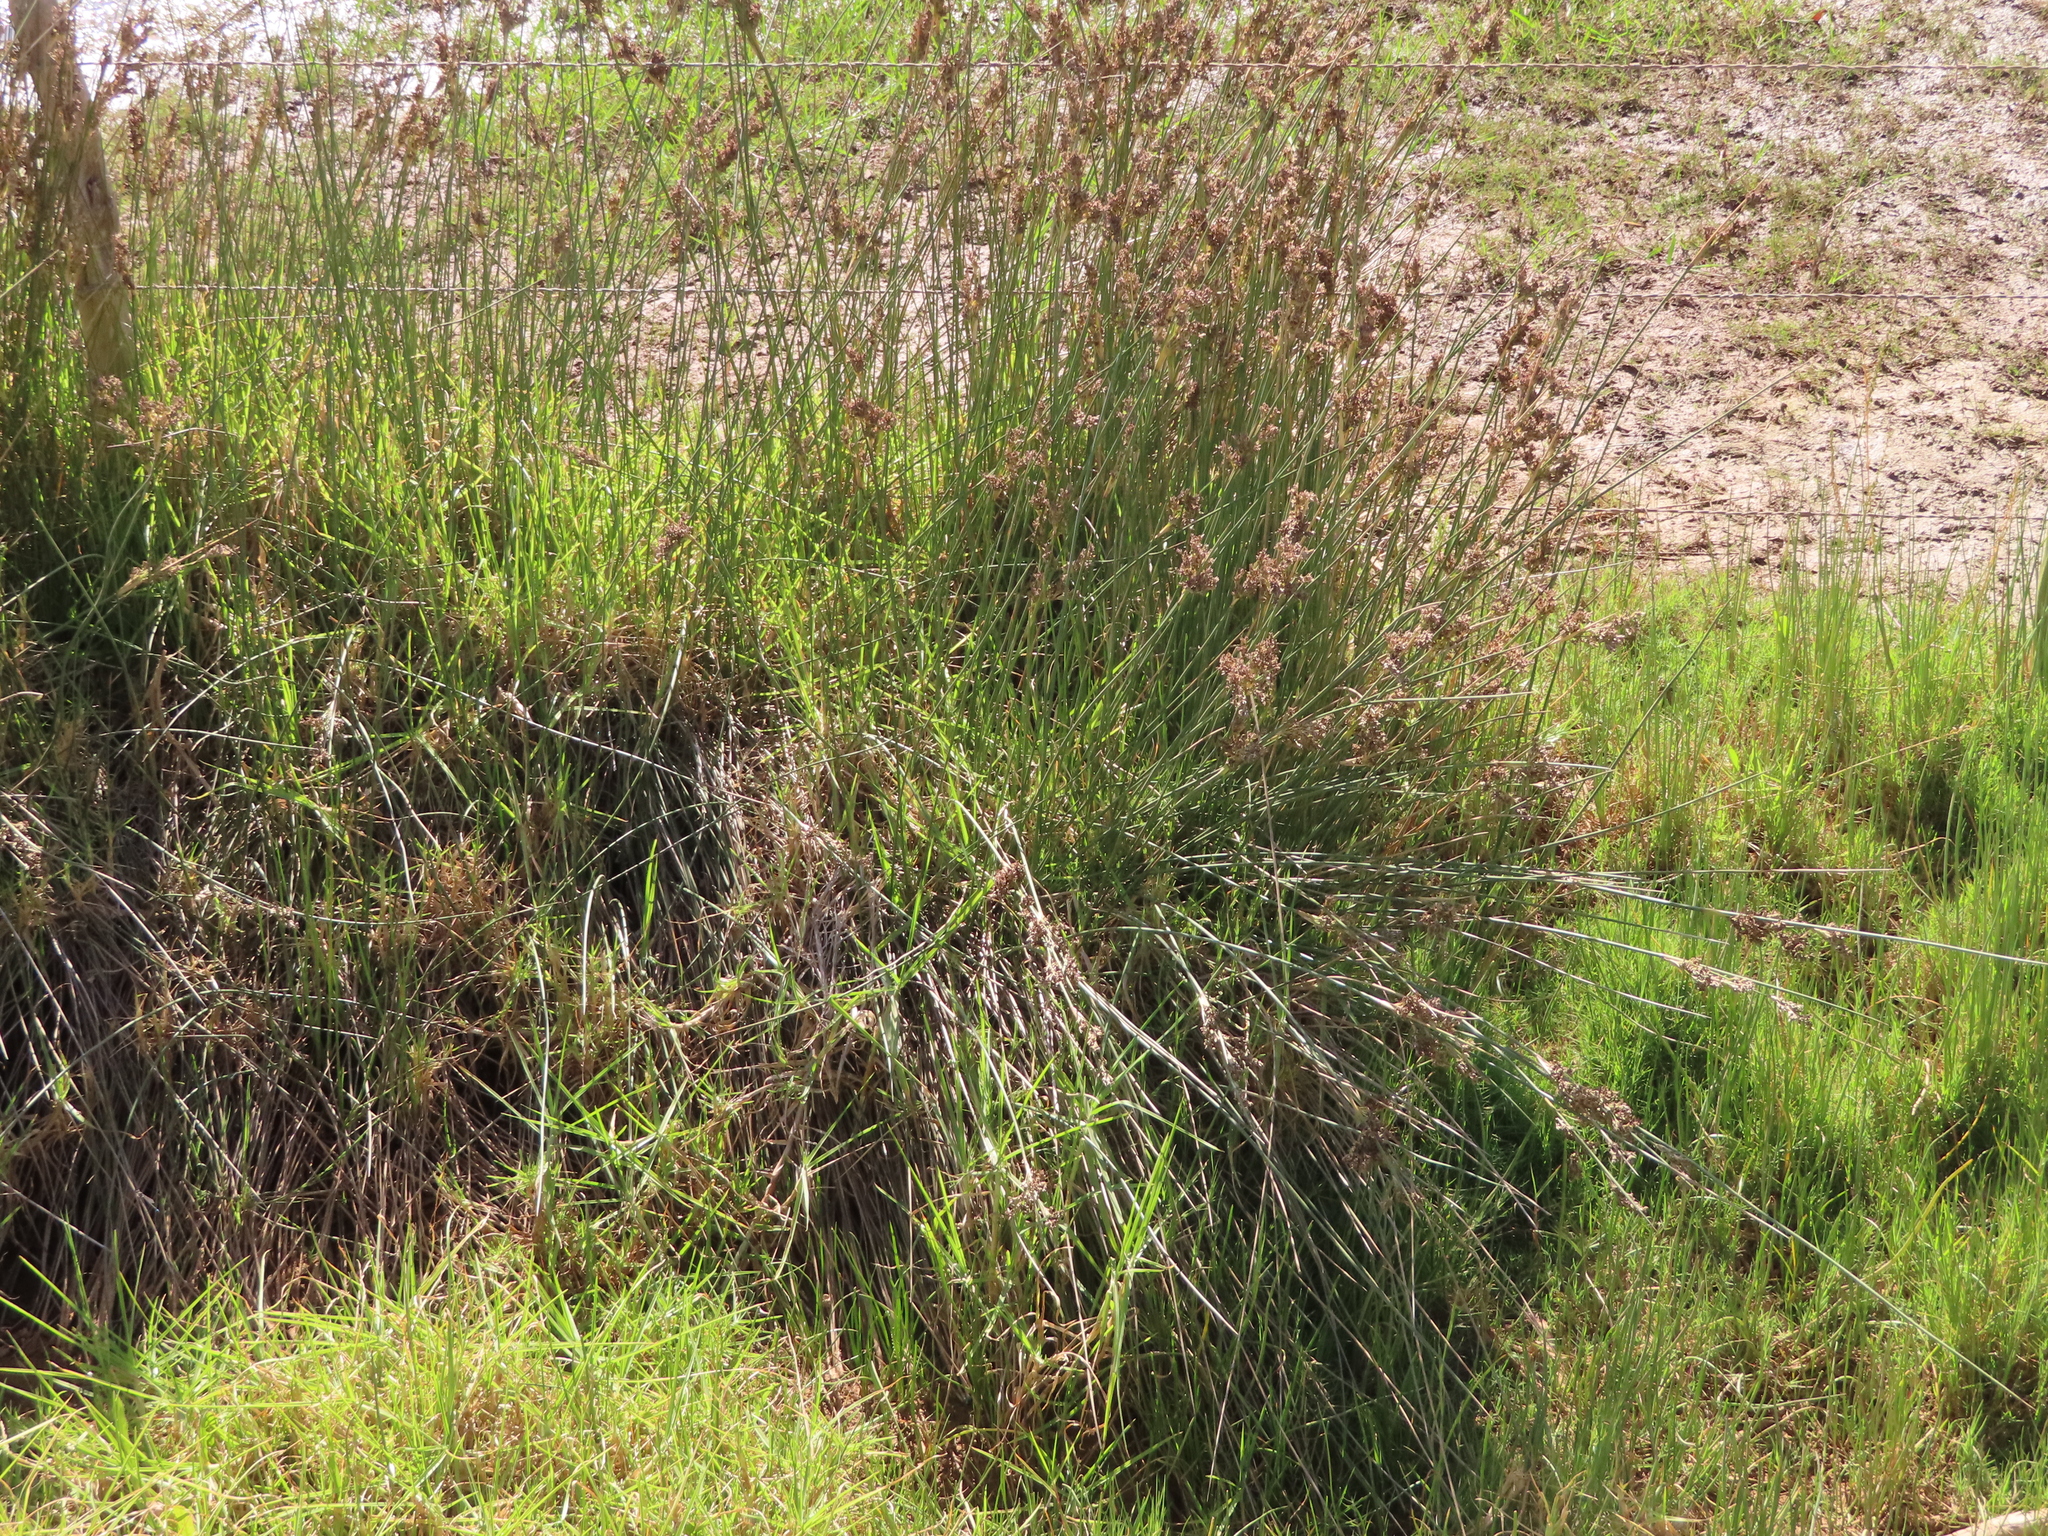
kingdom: Plantae
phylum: Tracheophyta
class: Liliopsida
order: Poales
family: Juncaceae
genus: Juncus
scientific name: Juncus kraussii
